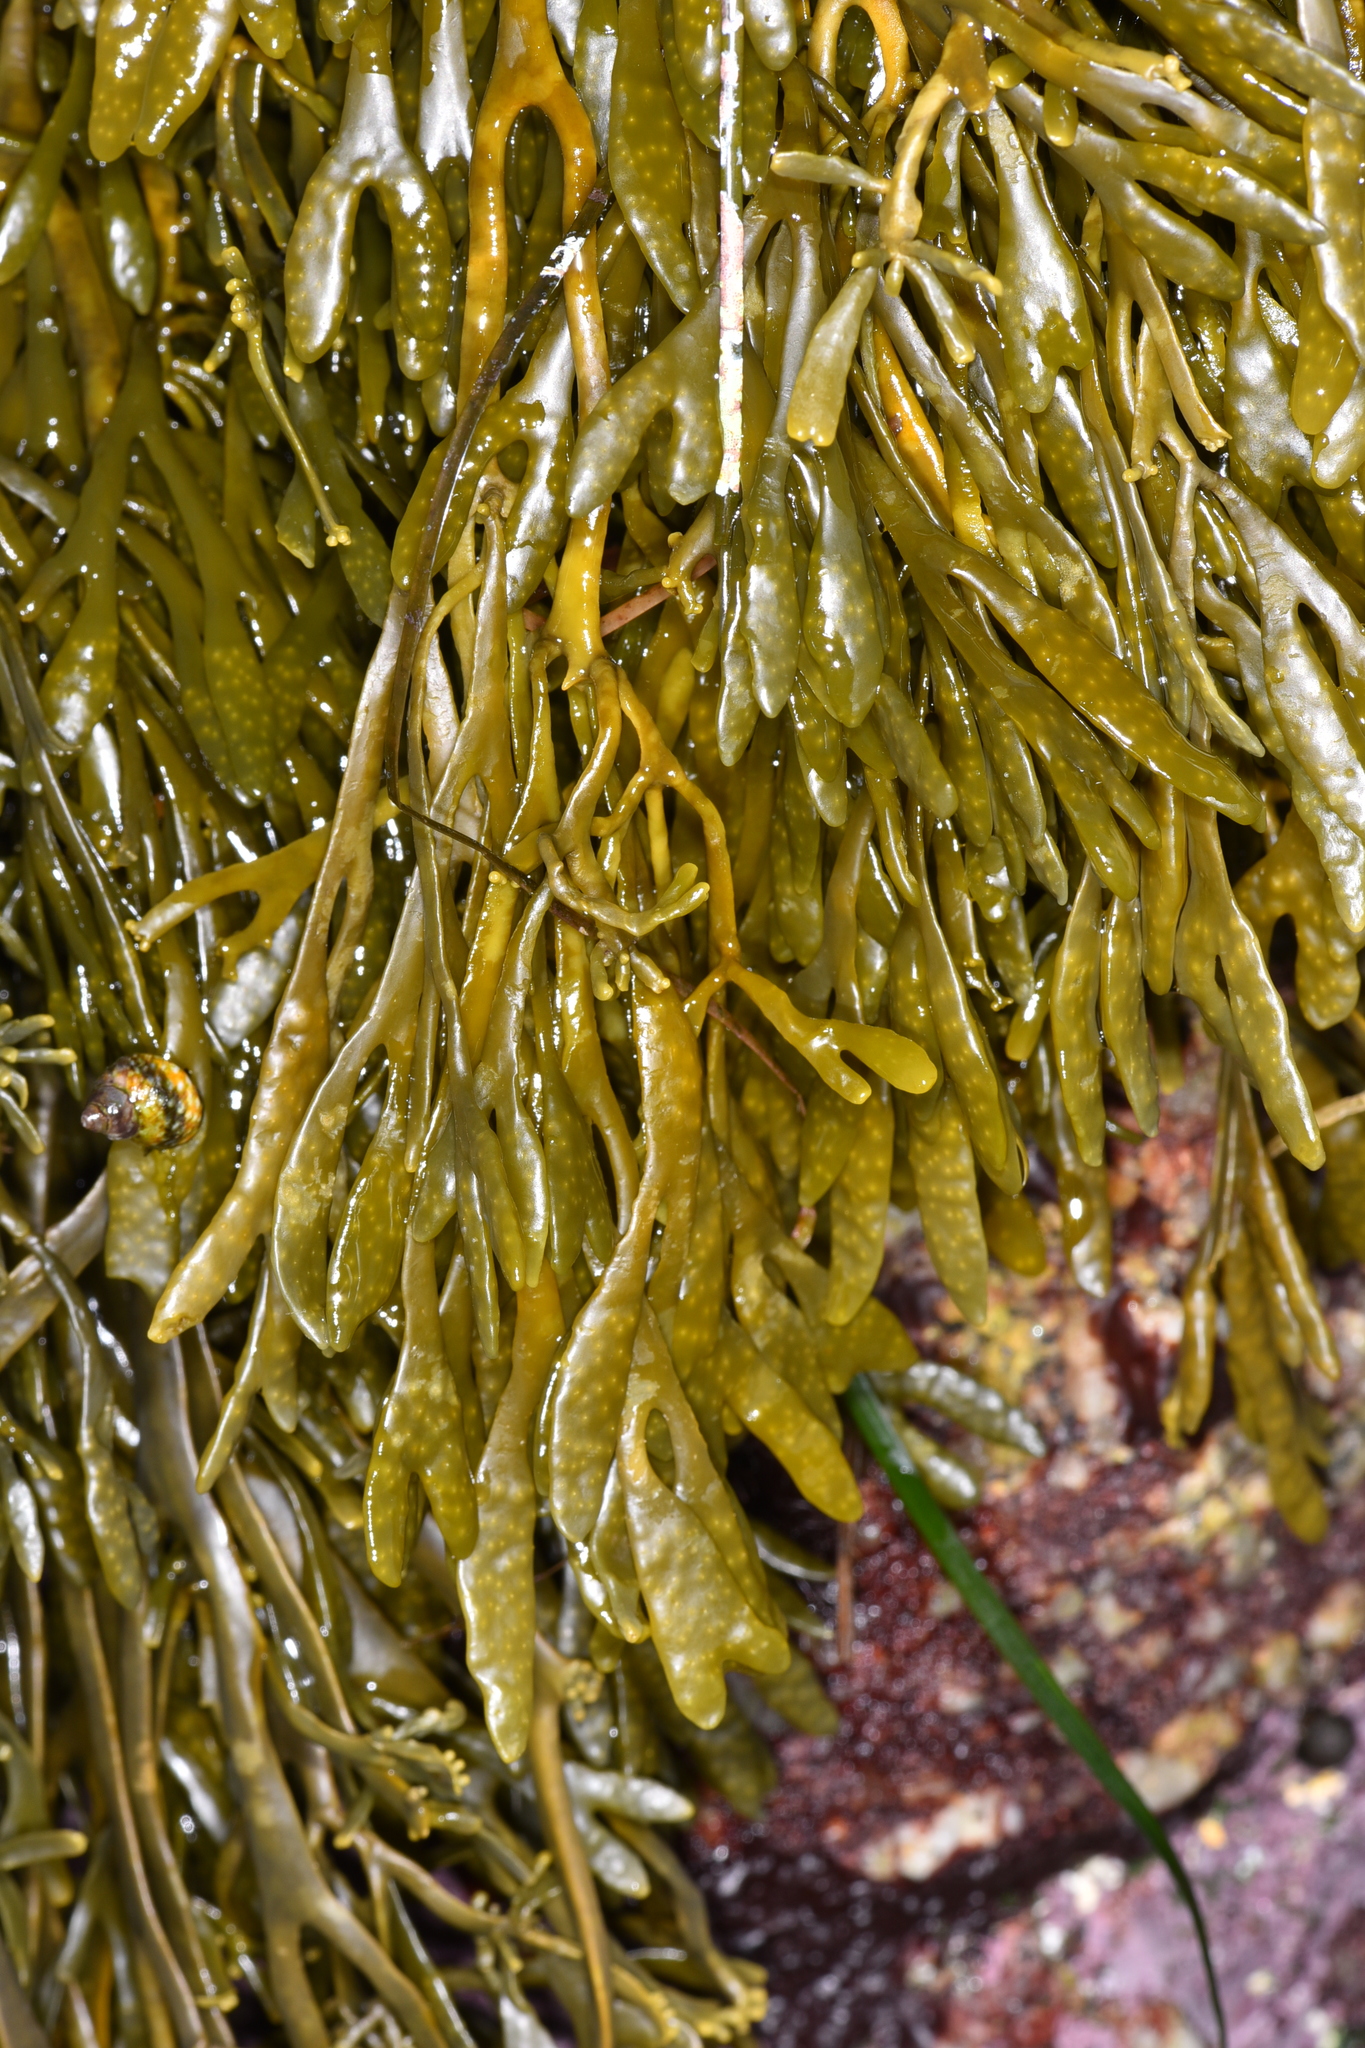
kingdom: Chromista
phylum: Ochrophyta
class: Phaeophyceae
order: Fucales
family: Fucaceae
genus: Pelvetiopsis
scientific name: Pelvetiopsis limitata
